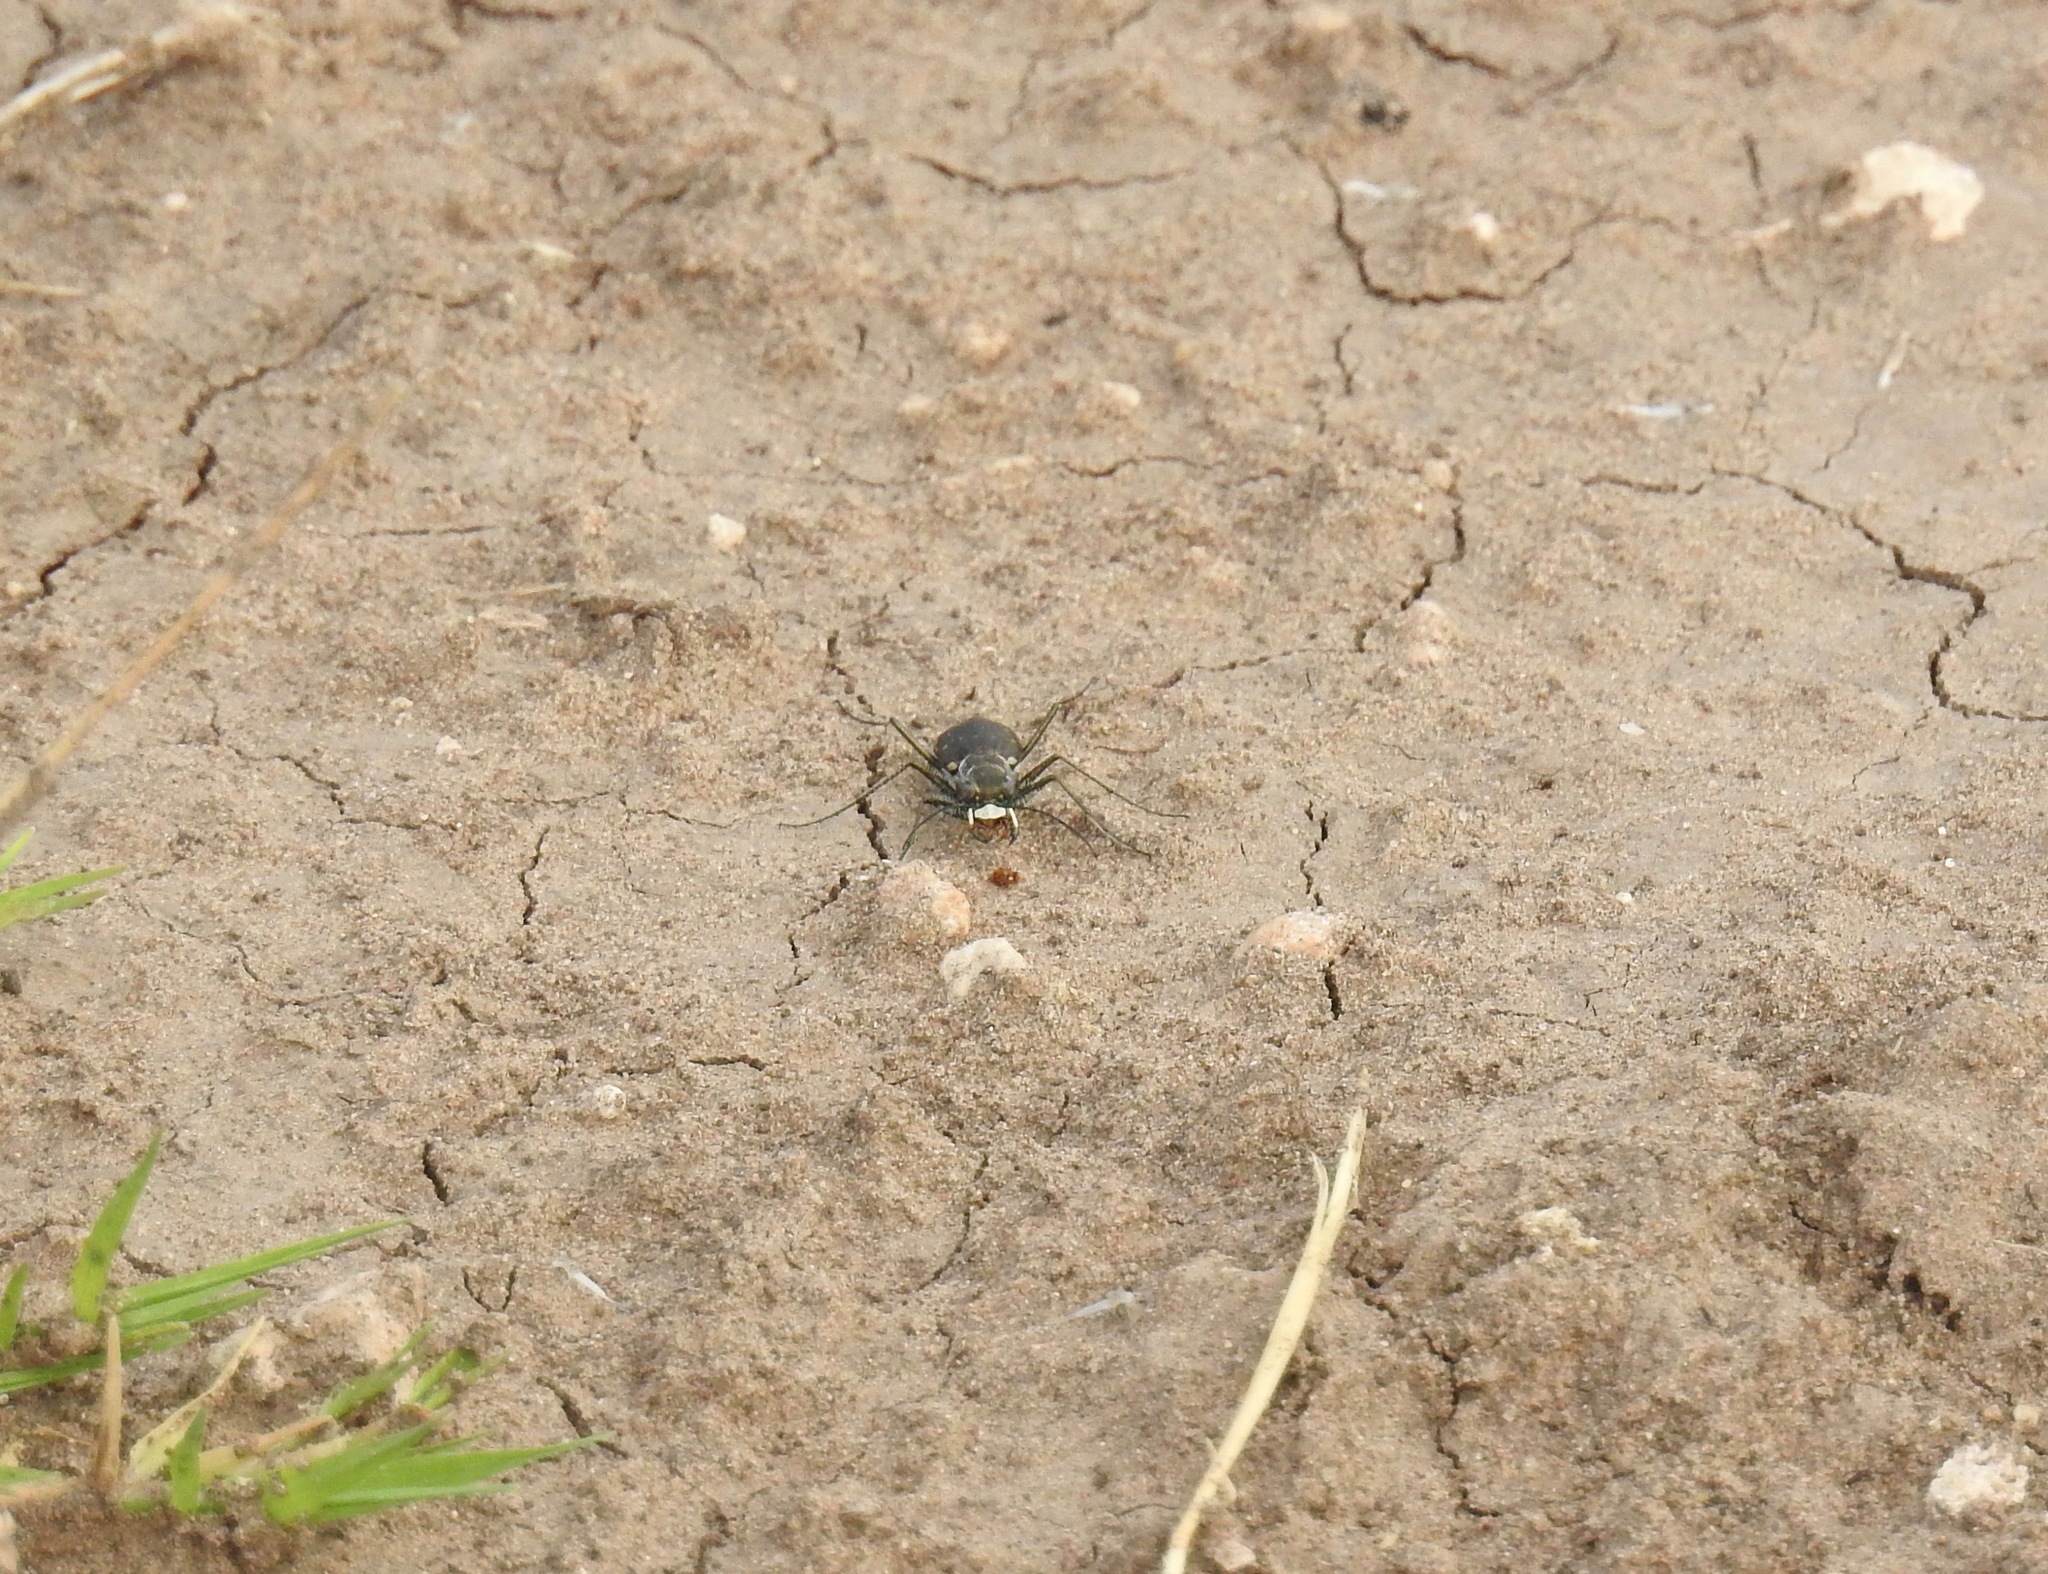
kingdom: Animalia
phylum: Arthropoda
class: Insecta
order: Coleoptera
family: Carabidae
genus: Cicindela
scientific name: Cicindela punctulata
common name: Punctured tiger beetle
